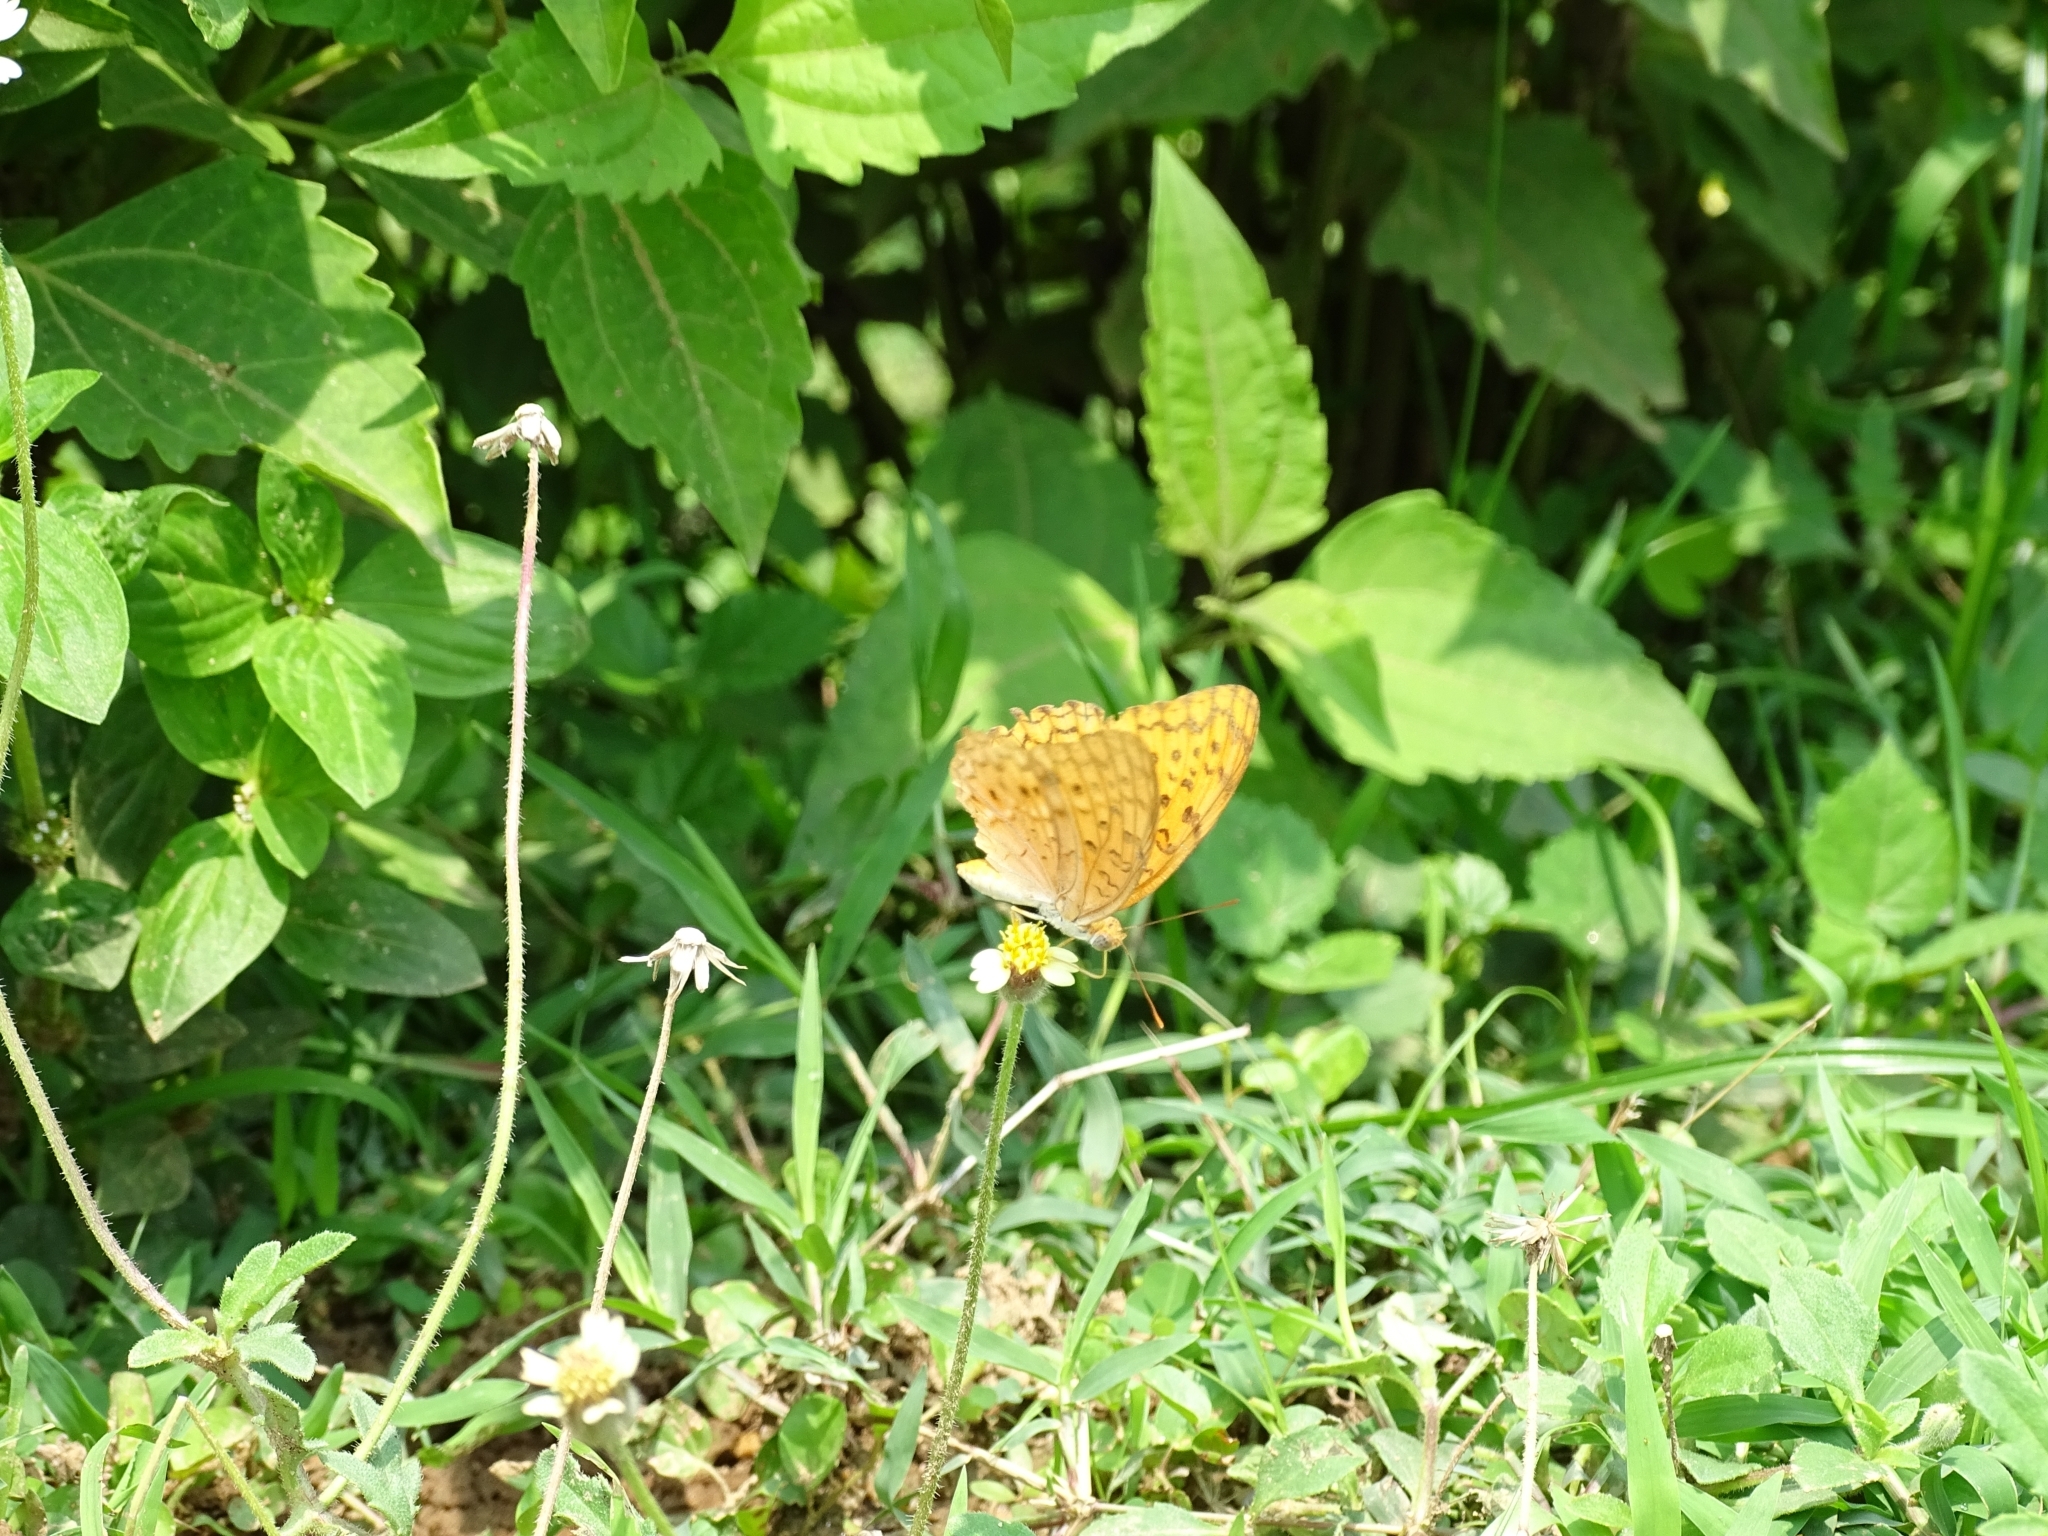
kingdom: Animalia
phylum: Arthropoda
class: Insecta
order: Lepidoptera
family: Nymphalidae
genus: Phalanta
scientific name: Phalanta phalantha
